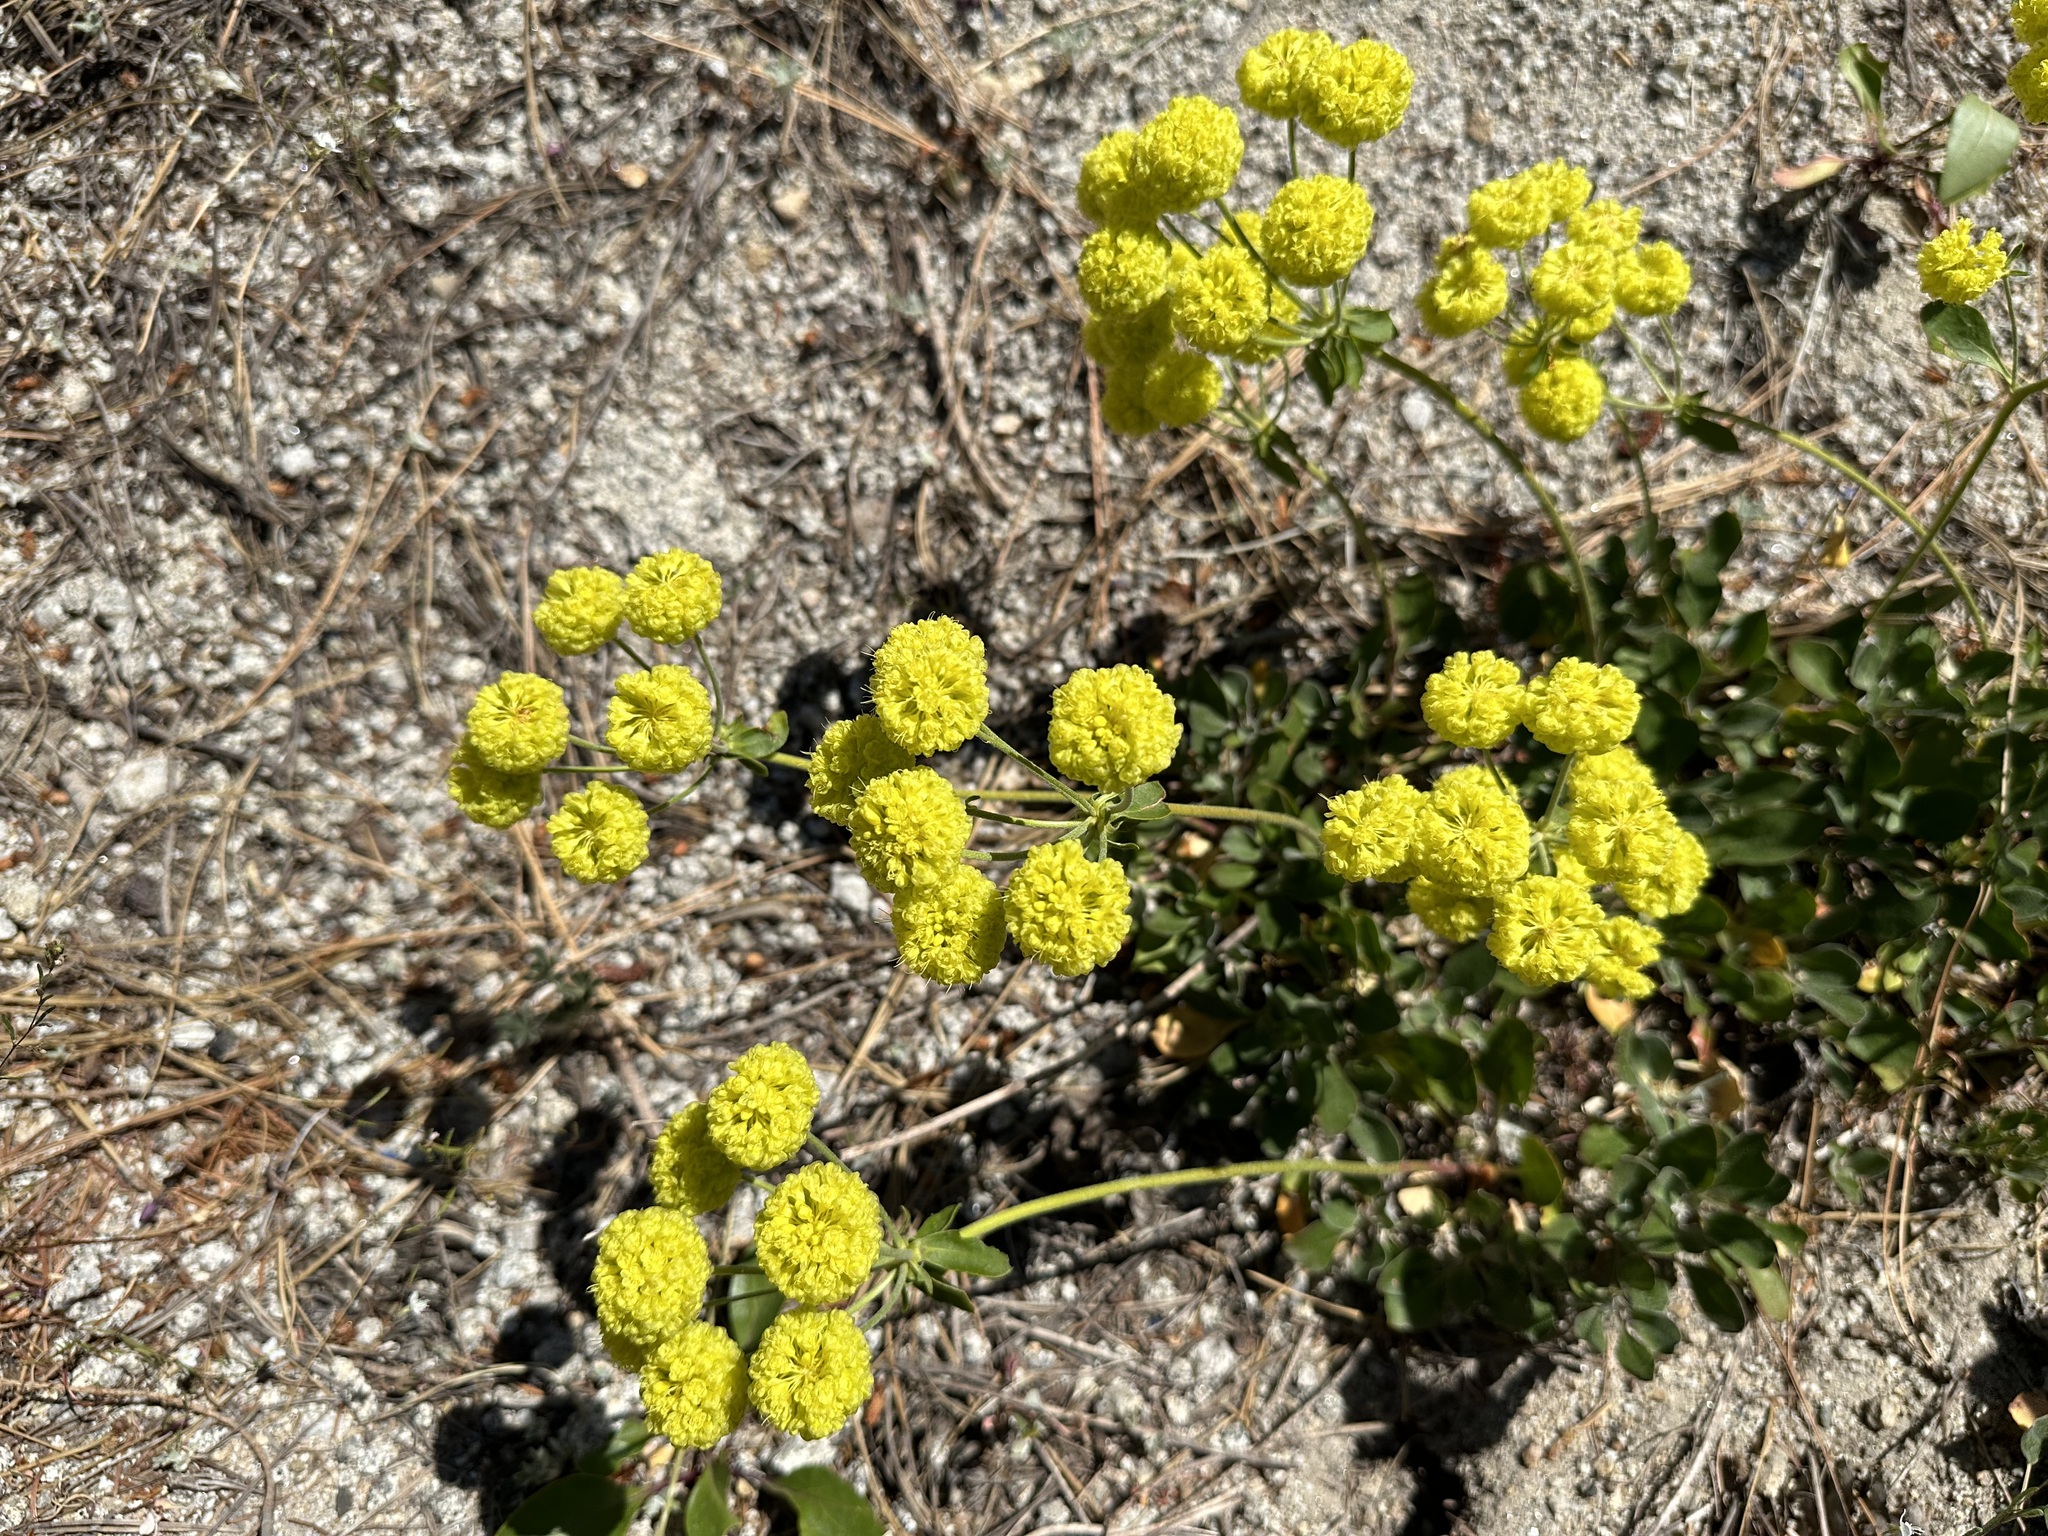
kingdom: Plantae
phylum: Tracheophyta
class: Magnoliopsida
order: Caryophyllales
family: Polygonaceae
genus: Eriogonum
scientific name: Eriogonum umbellatum
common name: Sulfur-buckwheat
